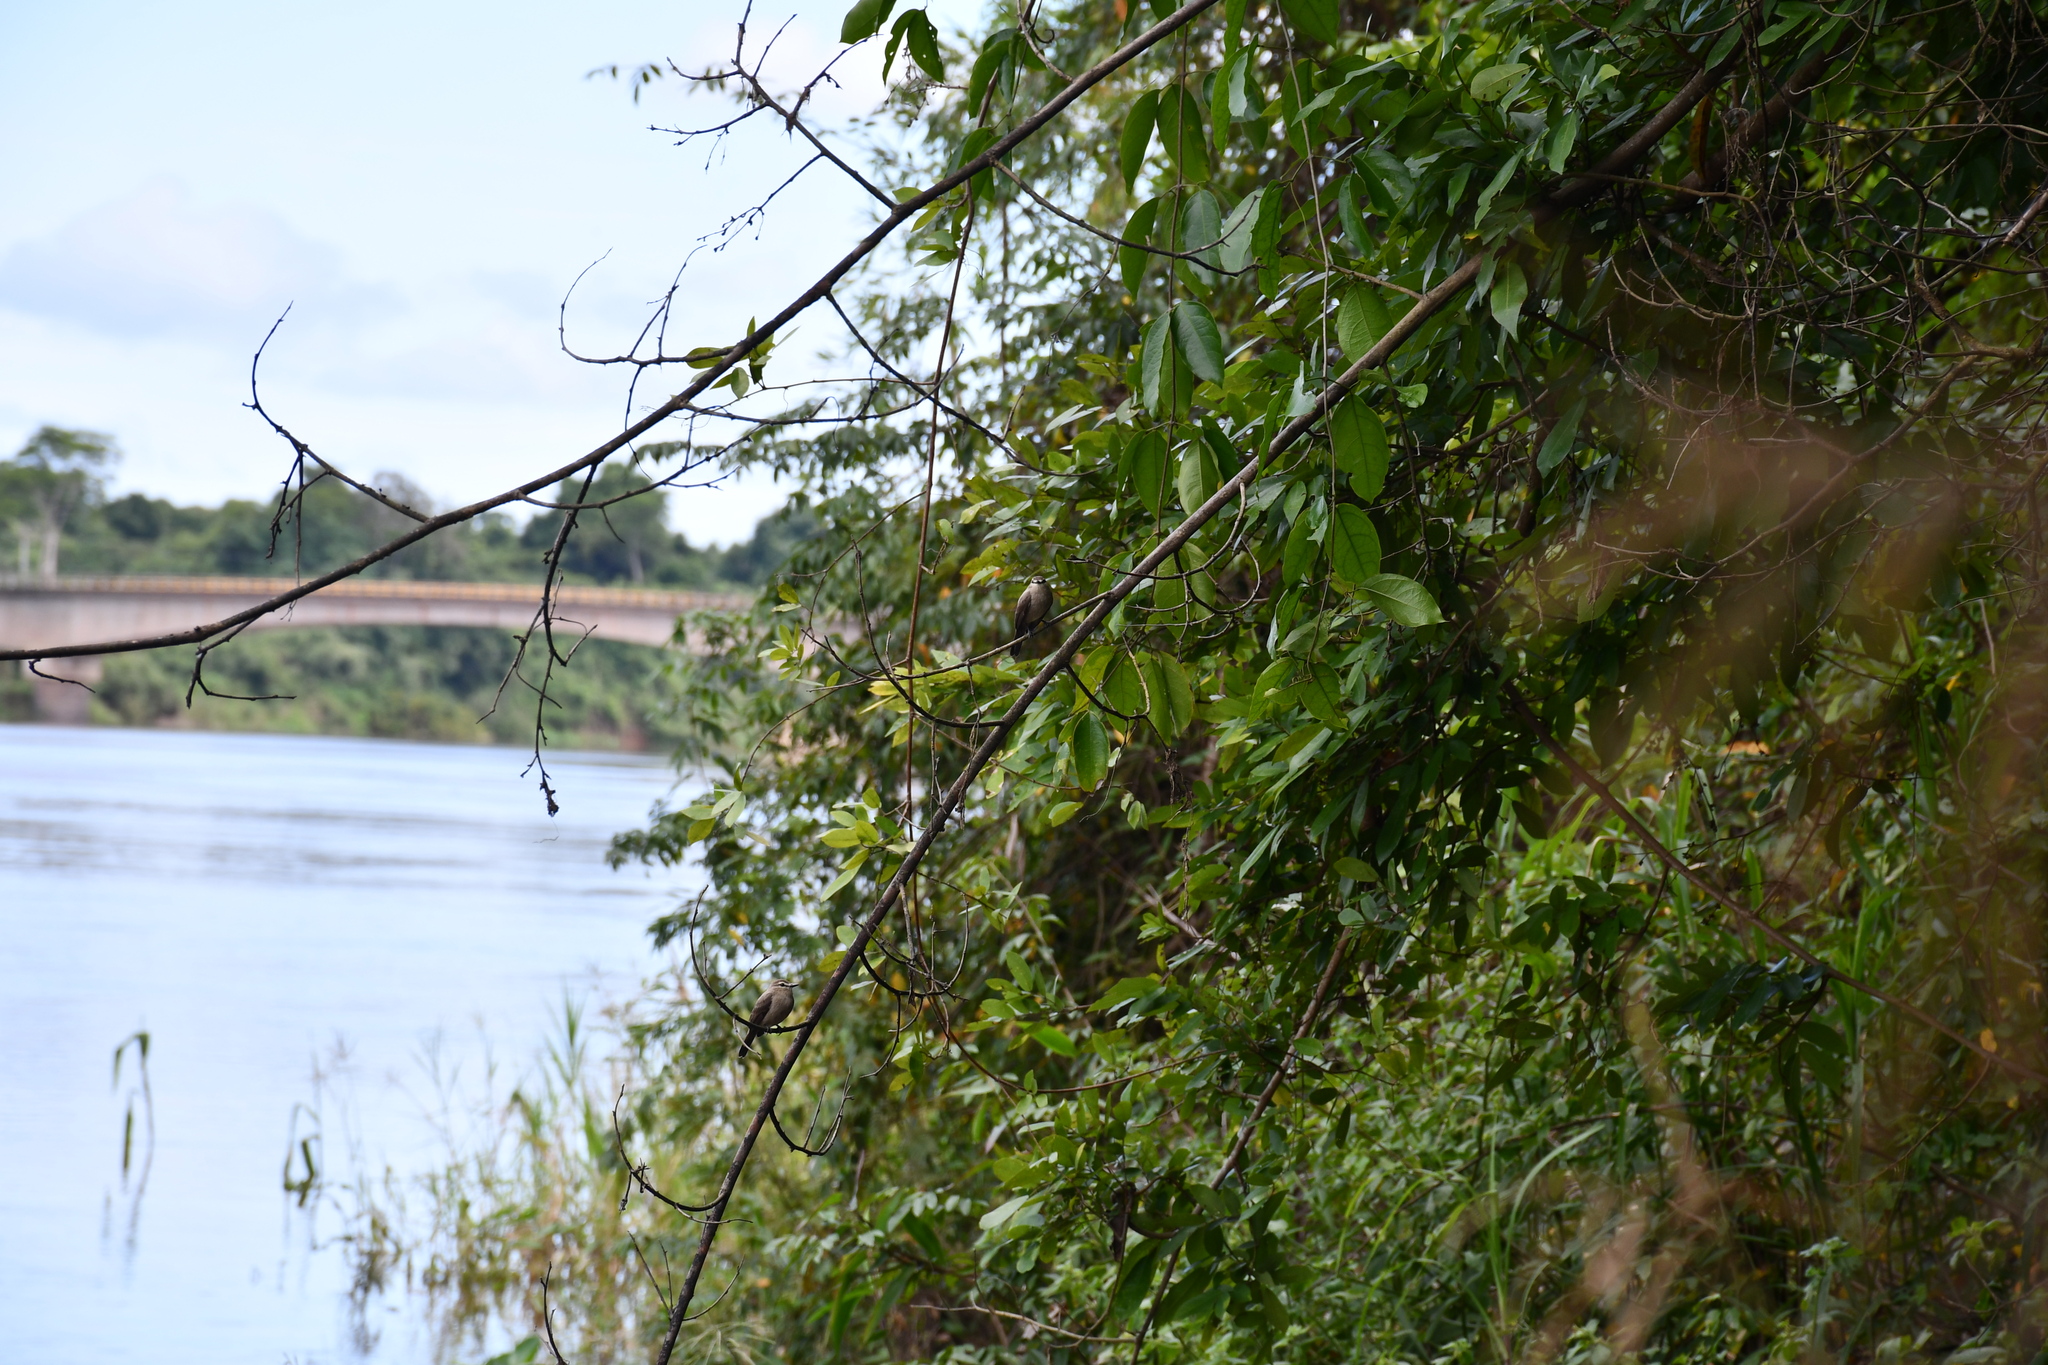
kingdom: Animalia
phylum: Chordata
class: Aves
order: Passeriformes
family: Tyrannidae
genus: Ochthornis
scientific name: Ochthornis littoralis
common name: Drab water tyrant
